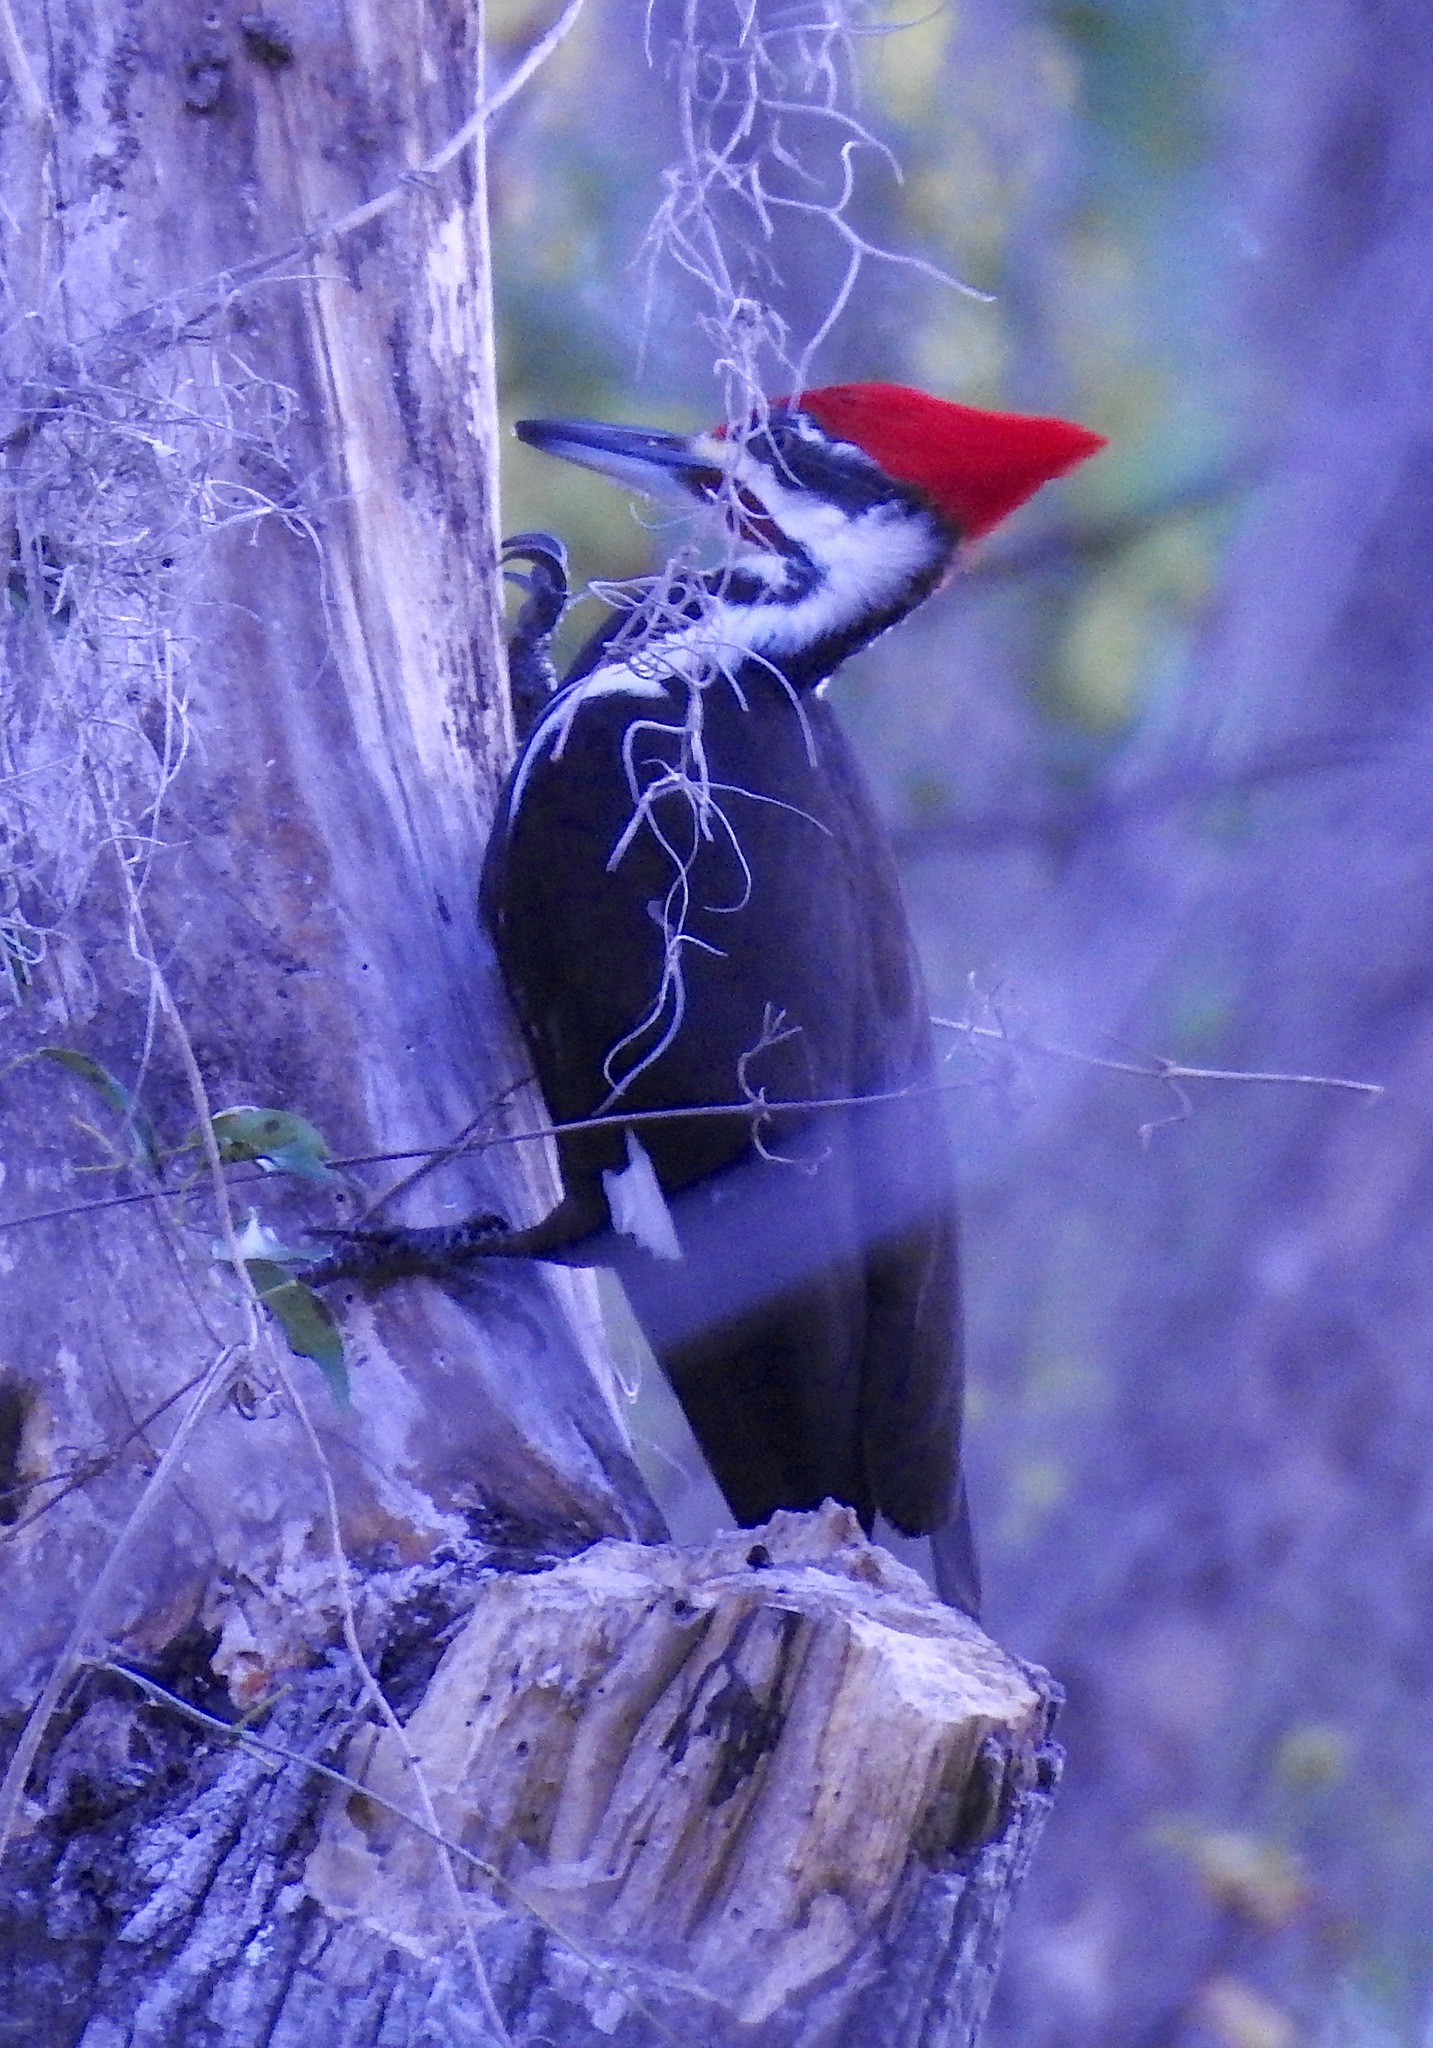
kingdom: Animalia
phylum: Chordata
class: Aves
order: Piciformes
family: Picidae
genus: Dryocopus
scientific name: Dryocopus pileatus
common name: Pileated woodpecker
